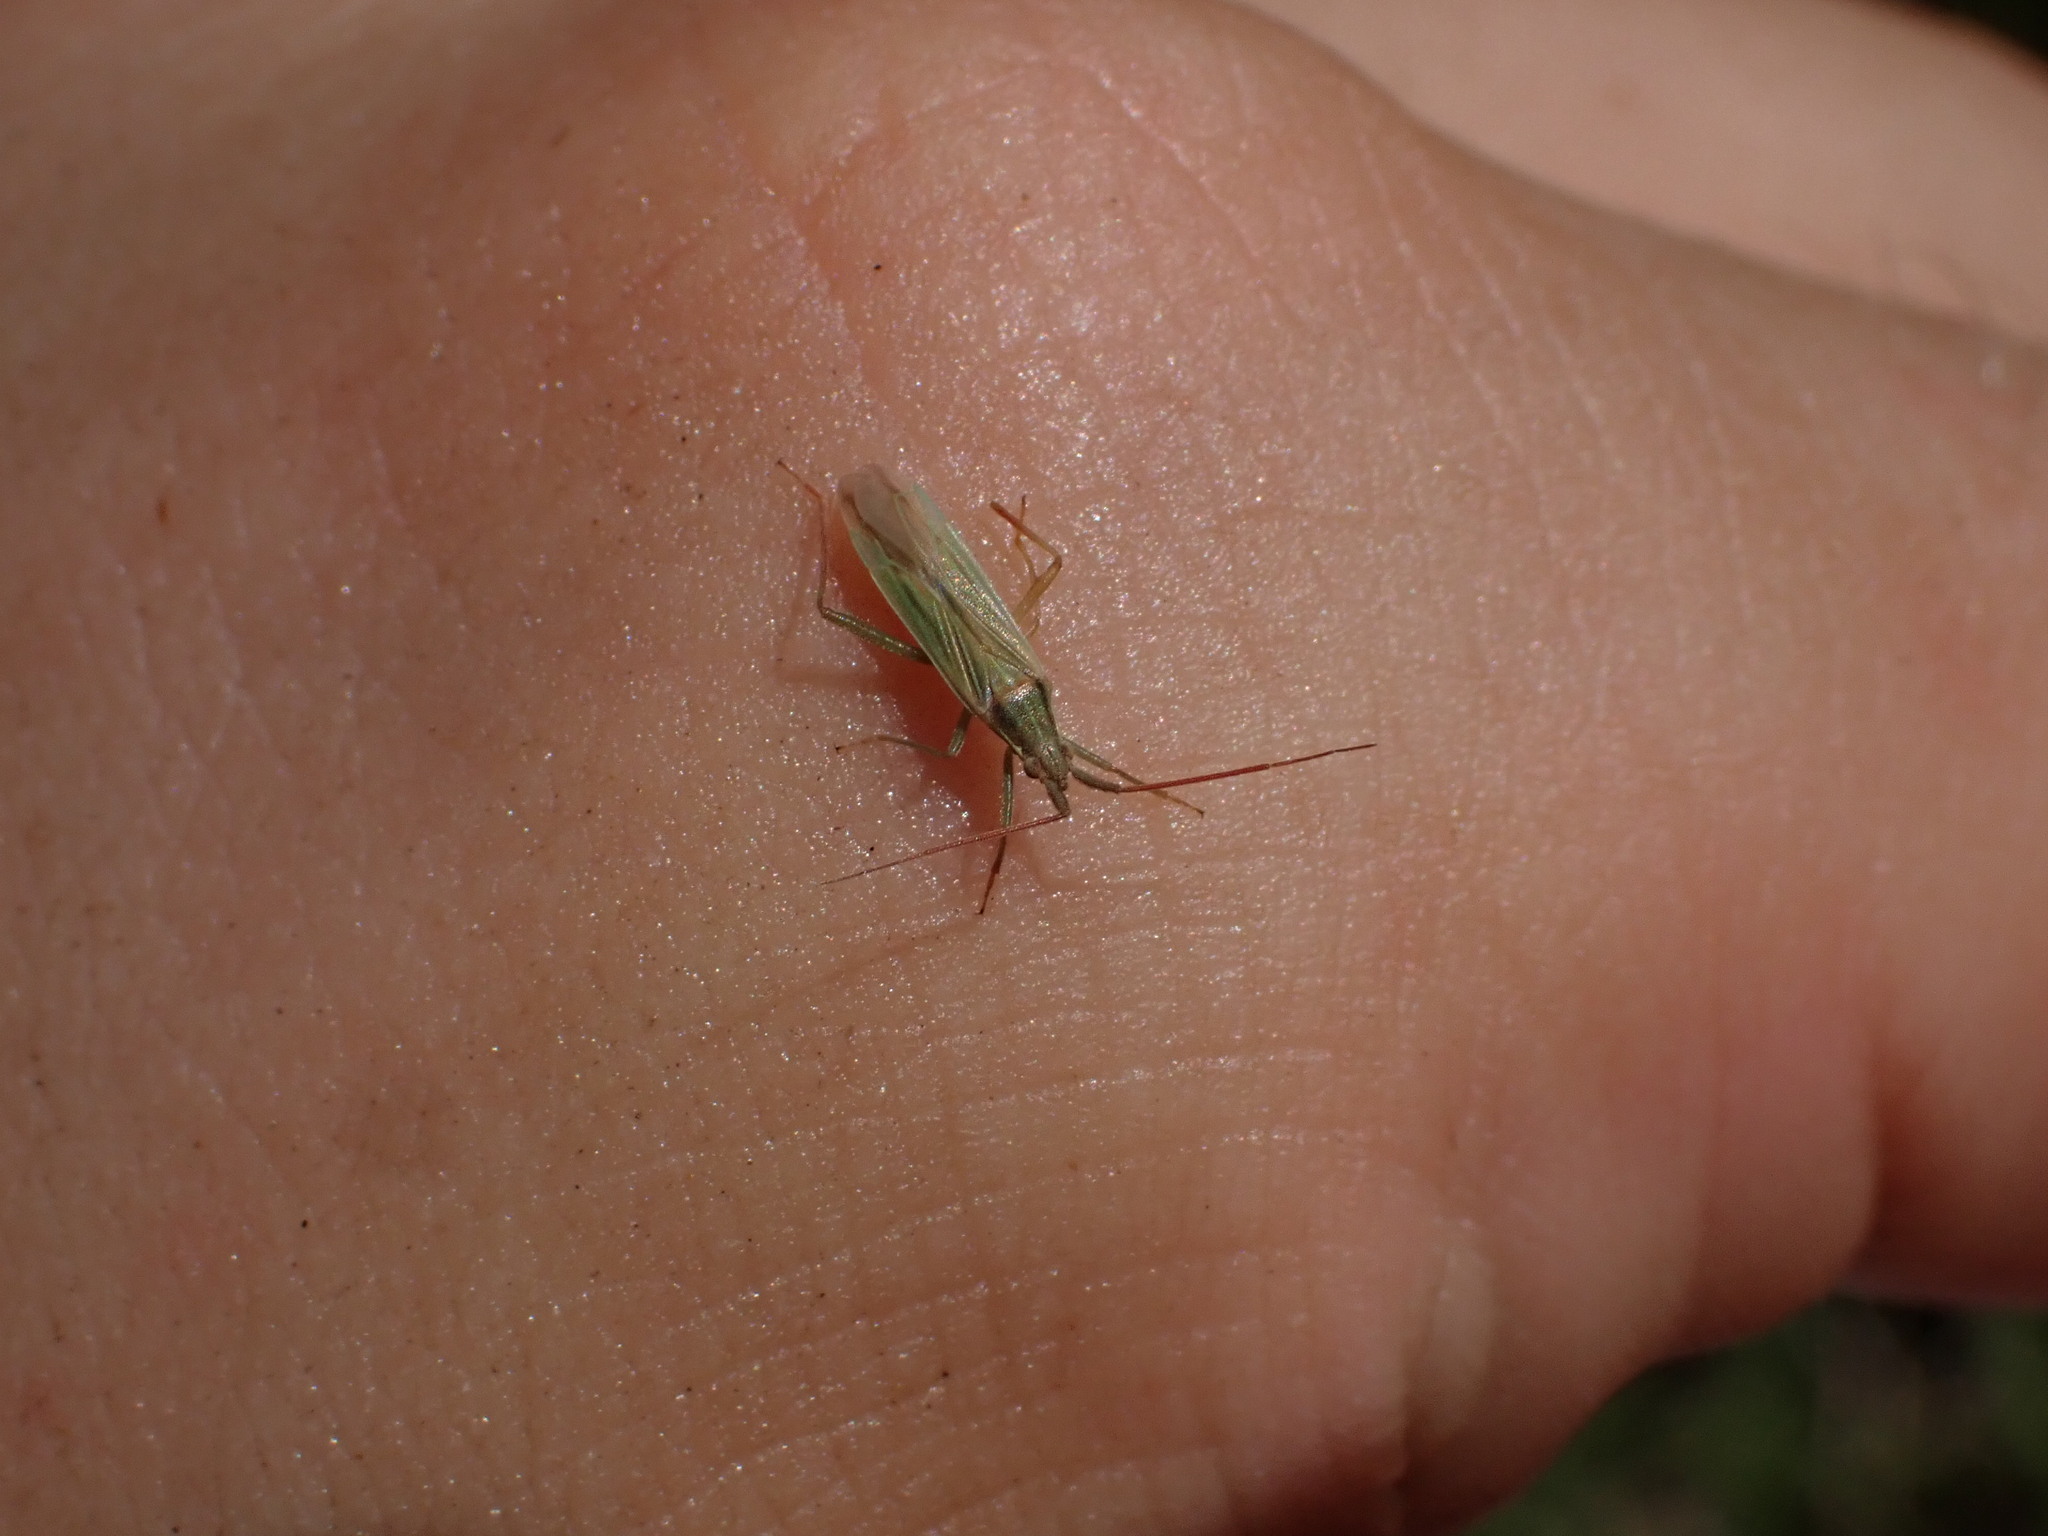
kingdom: Animalia
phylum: Arthropoda
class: Insecta
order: Hemiptera
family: Miridae
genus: Stenodema
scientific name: Stenodema calcarata
